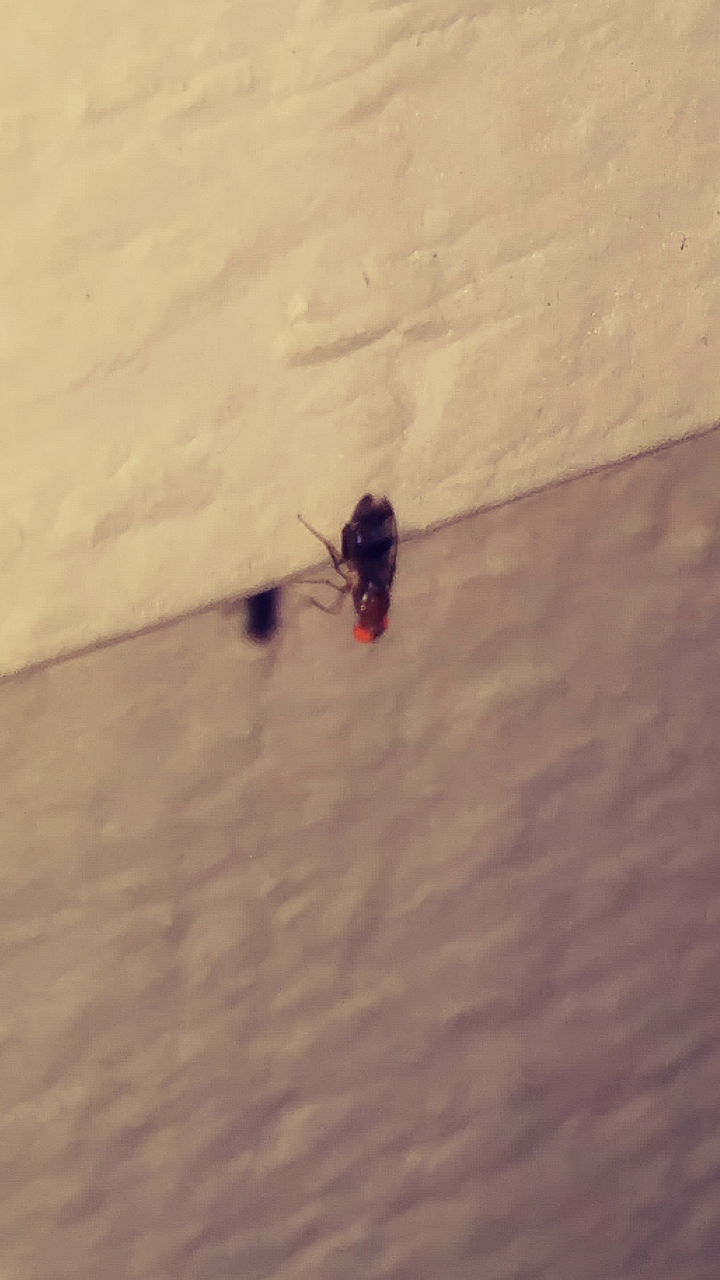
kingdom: Animalia
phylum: Arthropoda
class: Insecta
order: Diptera
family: Drosophilidae
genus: Chymomyza
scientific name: Chymomyza amoena
